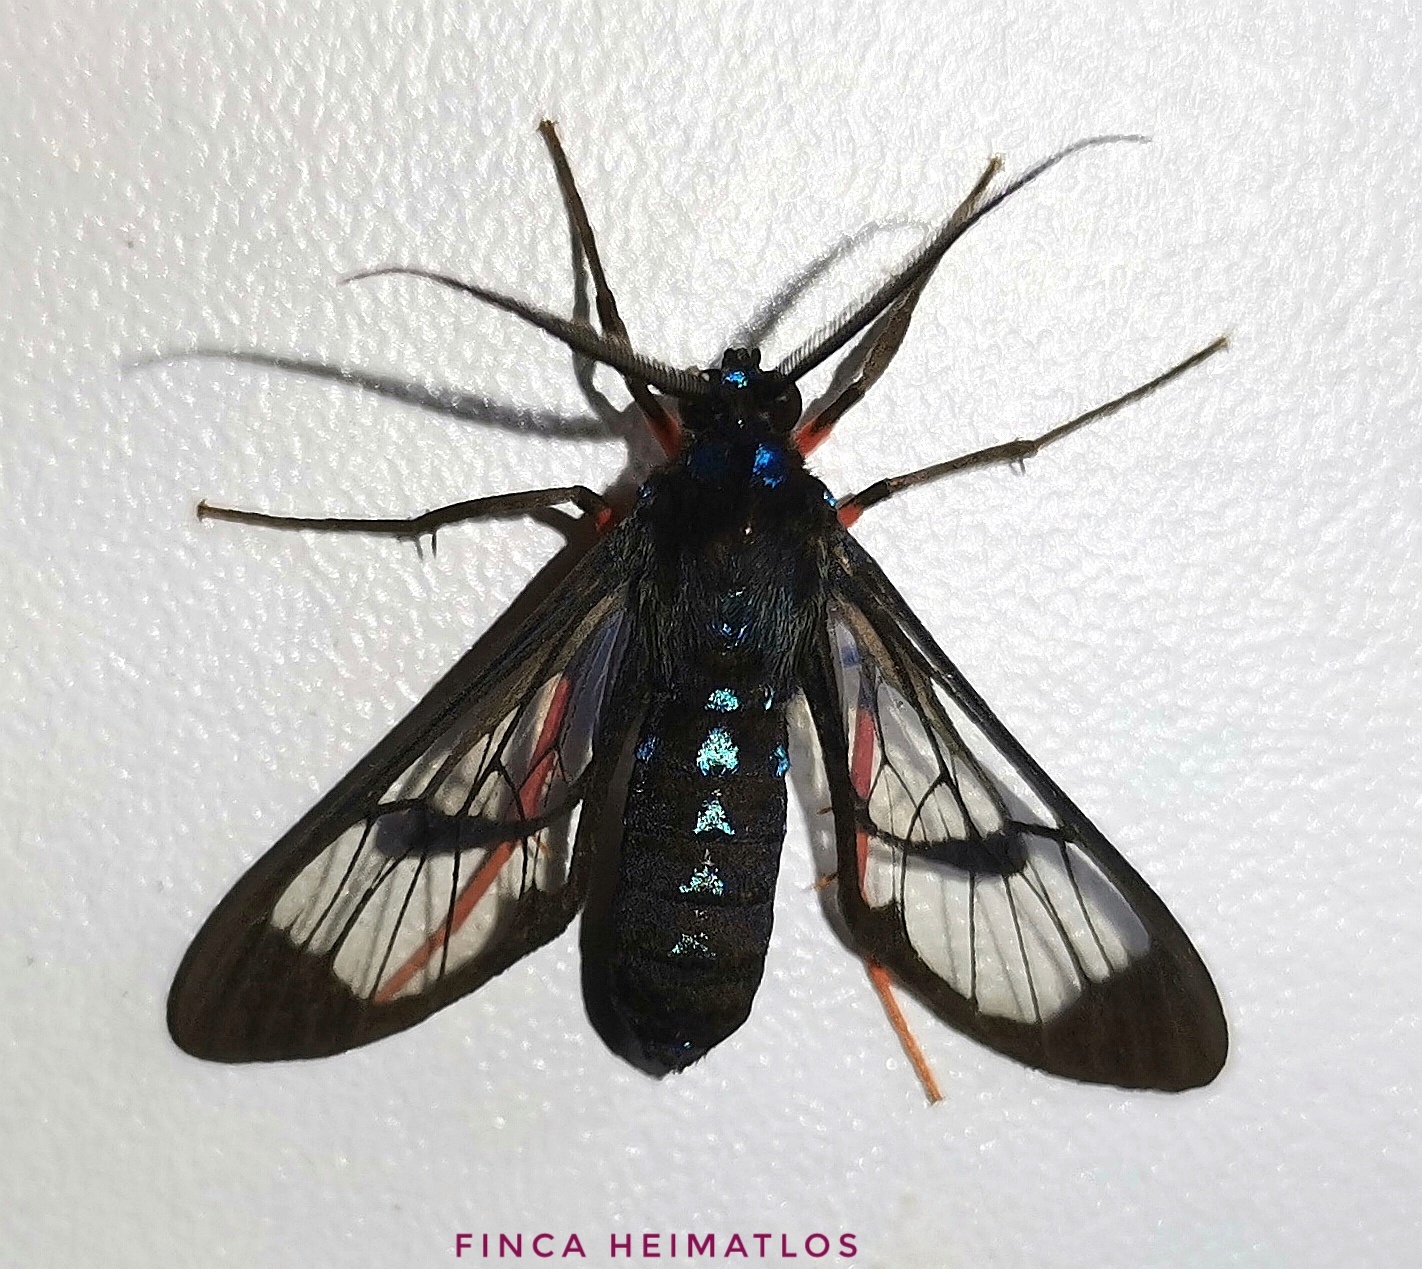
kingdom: Animalia
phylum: Arthropoda
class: Insecta
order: Lepidoptera
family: Erebidae
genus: Cosmosoma
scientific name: Cosmosoma subflamma
